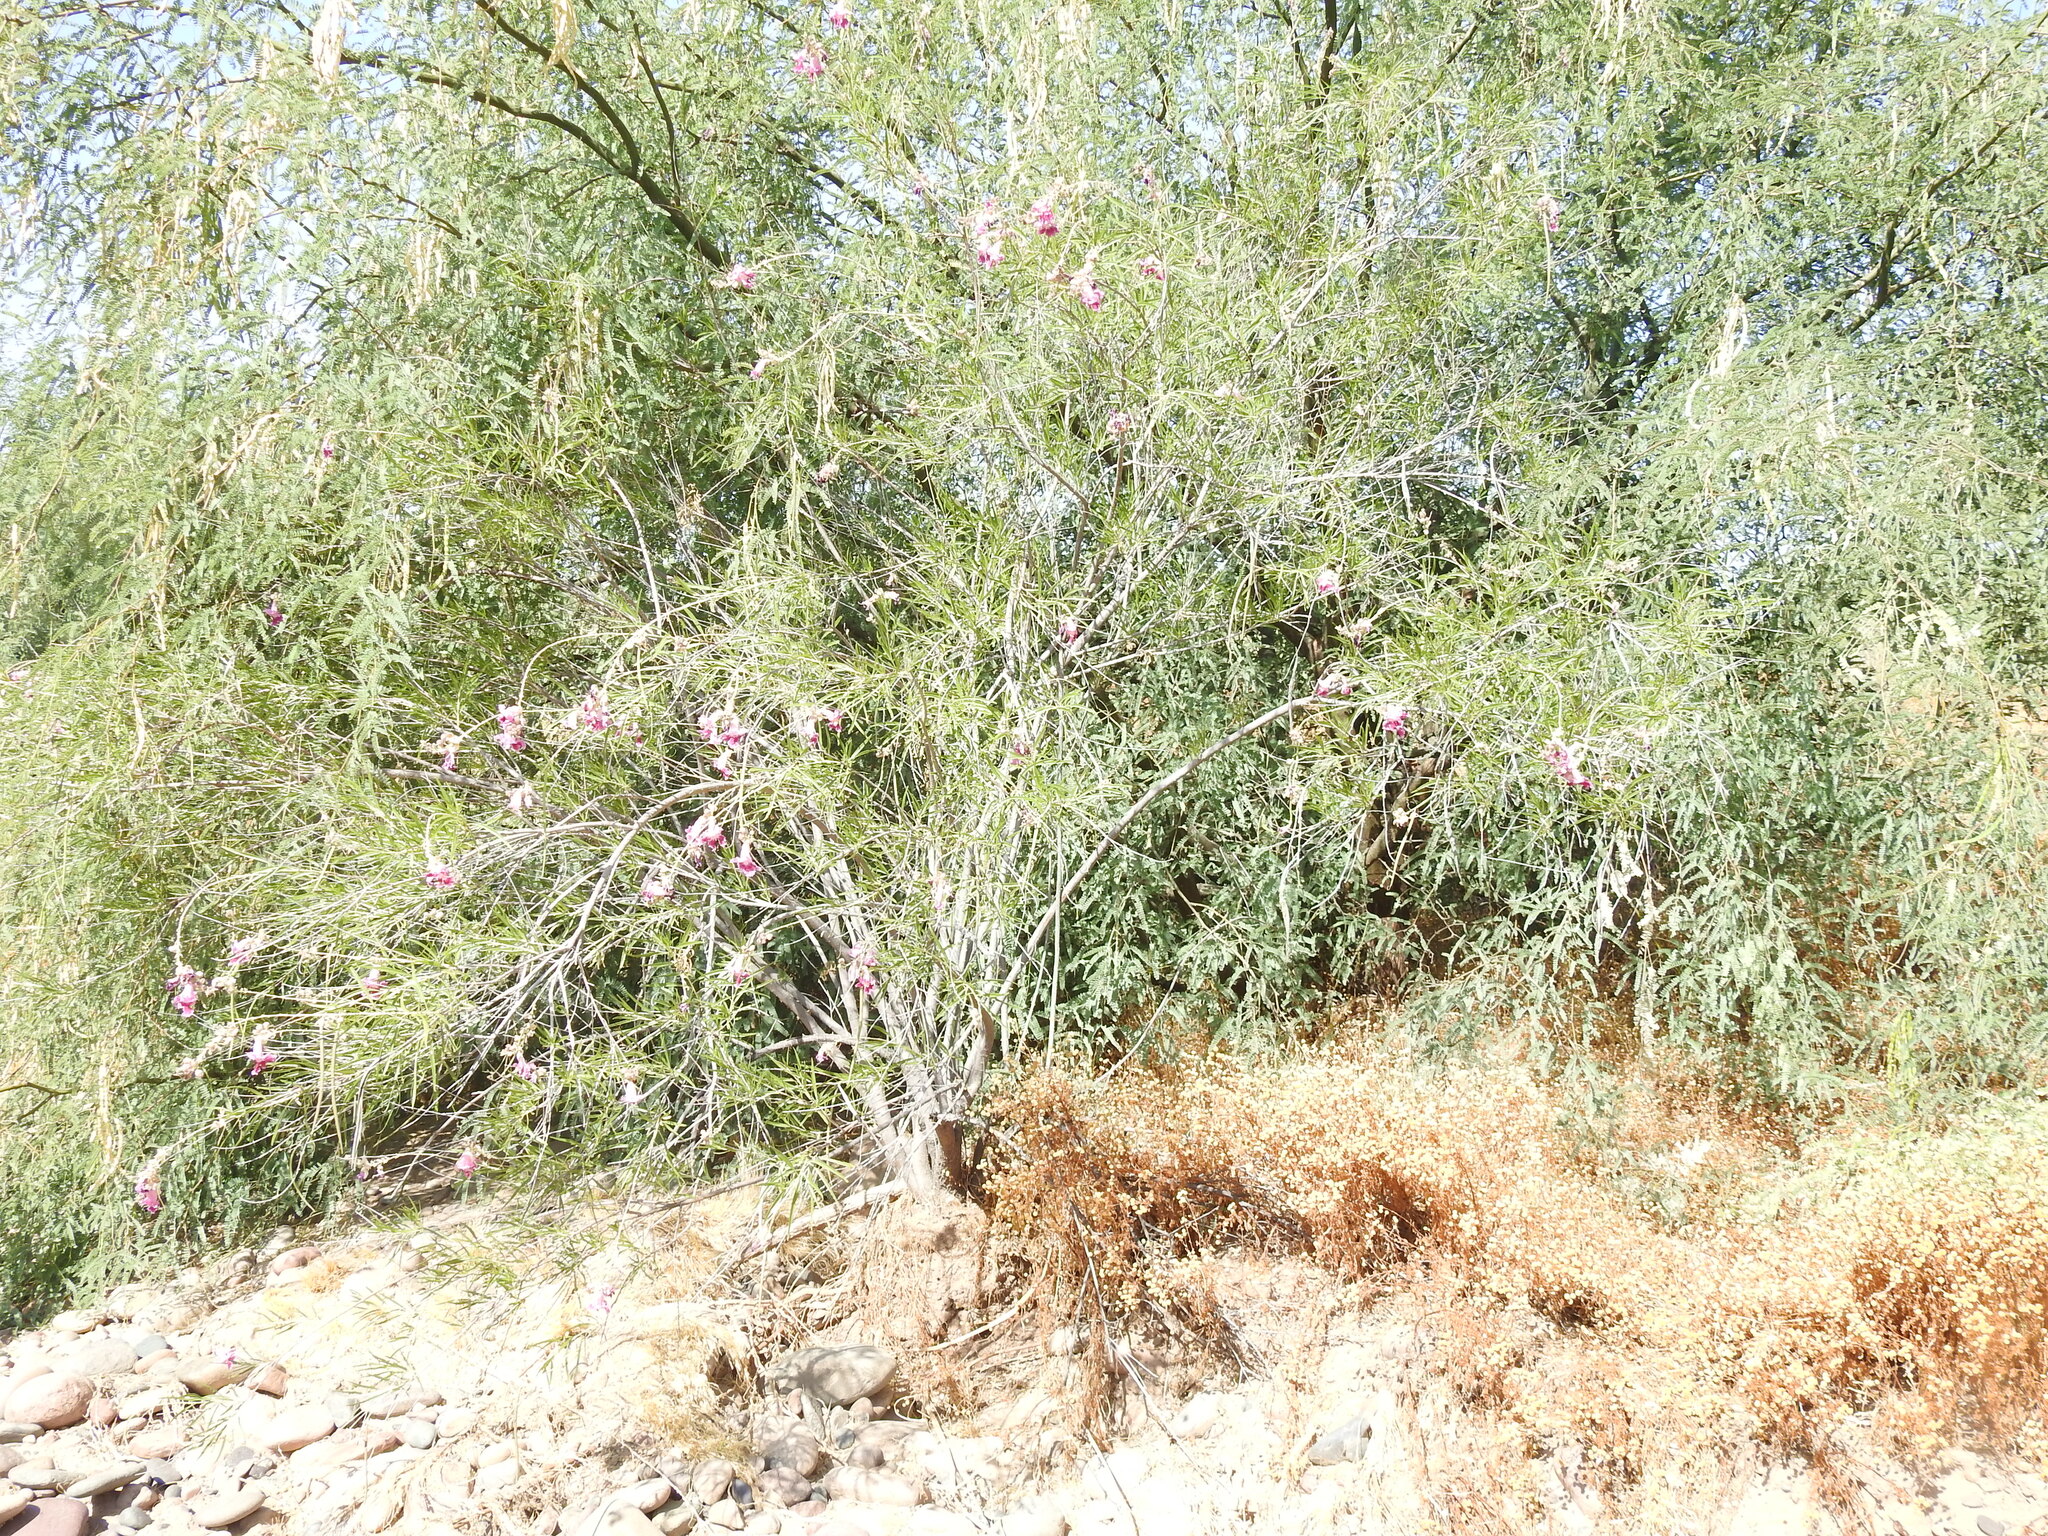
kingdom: Plantae
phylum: Tracheophyta
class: Magnoliopsida
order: Lamiales
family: Bignoniaceae
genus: Chilopsis
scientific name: Chilopsis linearis
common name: Desert-willow
